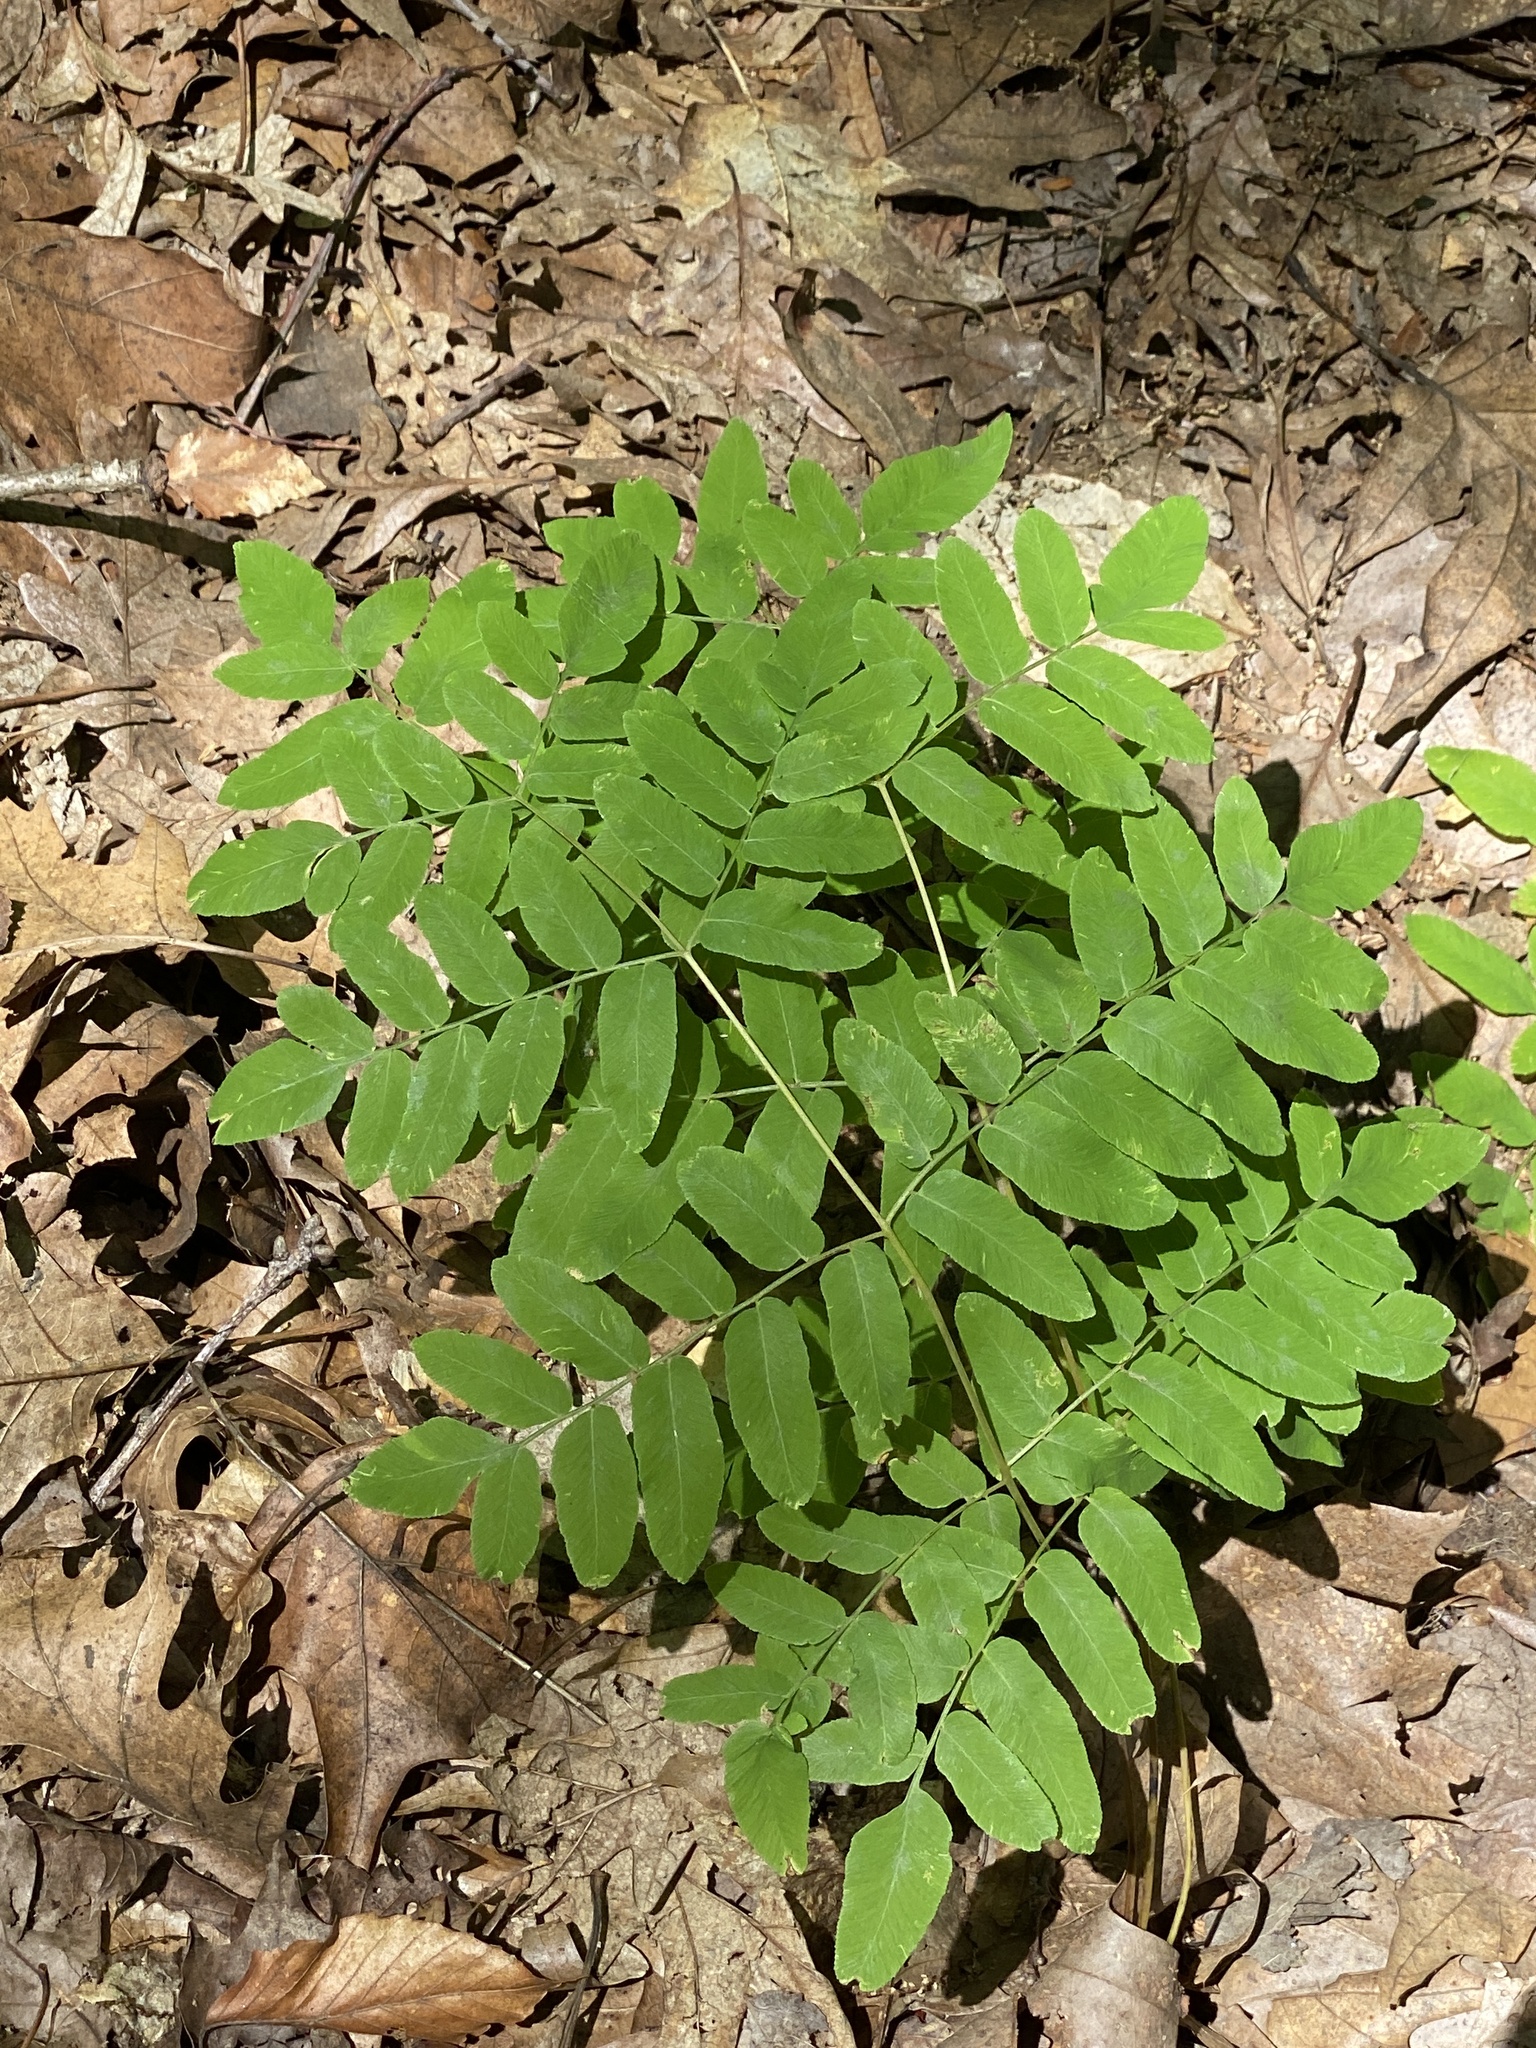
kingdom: Plantae
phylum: Tracheophyta
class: Polypodiopsida
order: Osmundales
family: Osmundaceae
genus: Osmunda
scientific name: Osmunda spectabilis
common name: American royal fern
